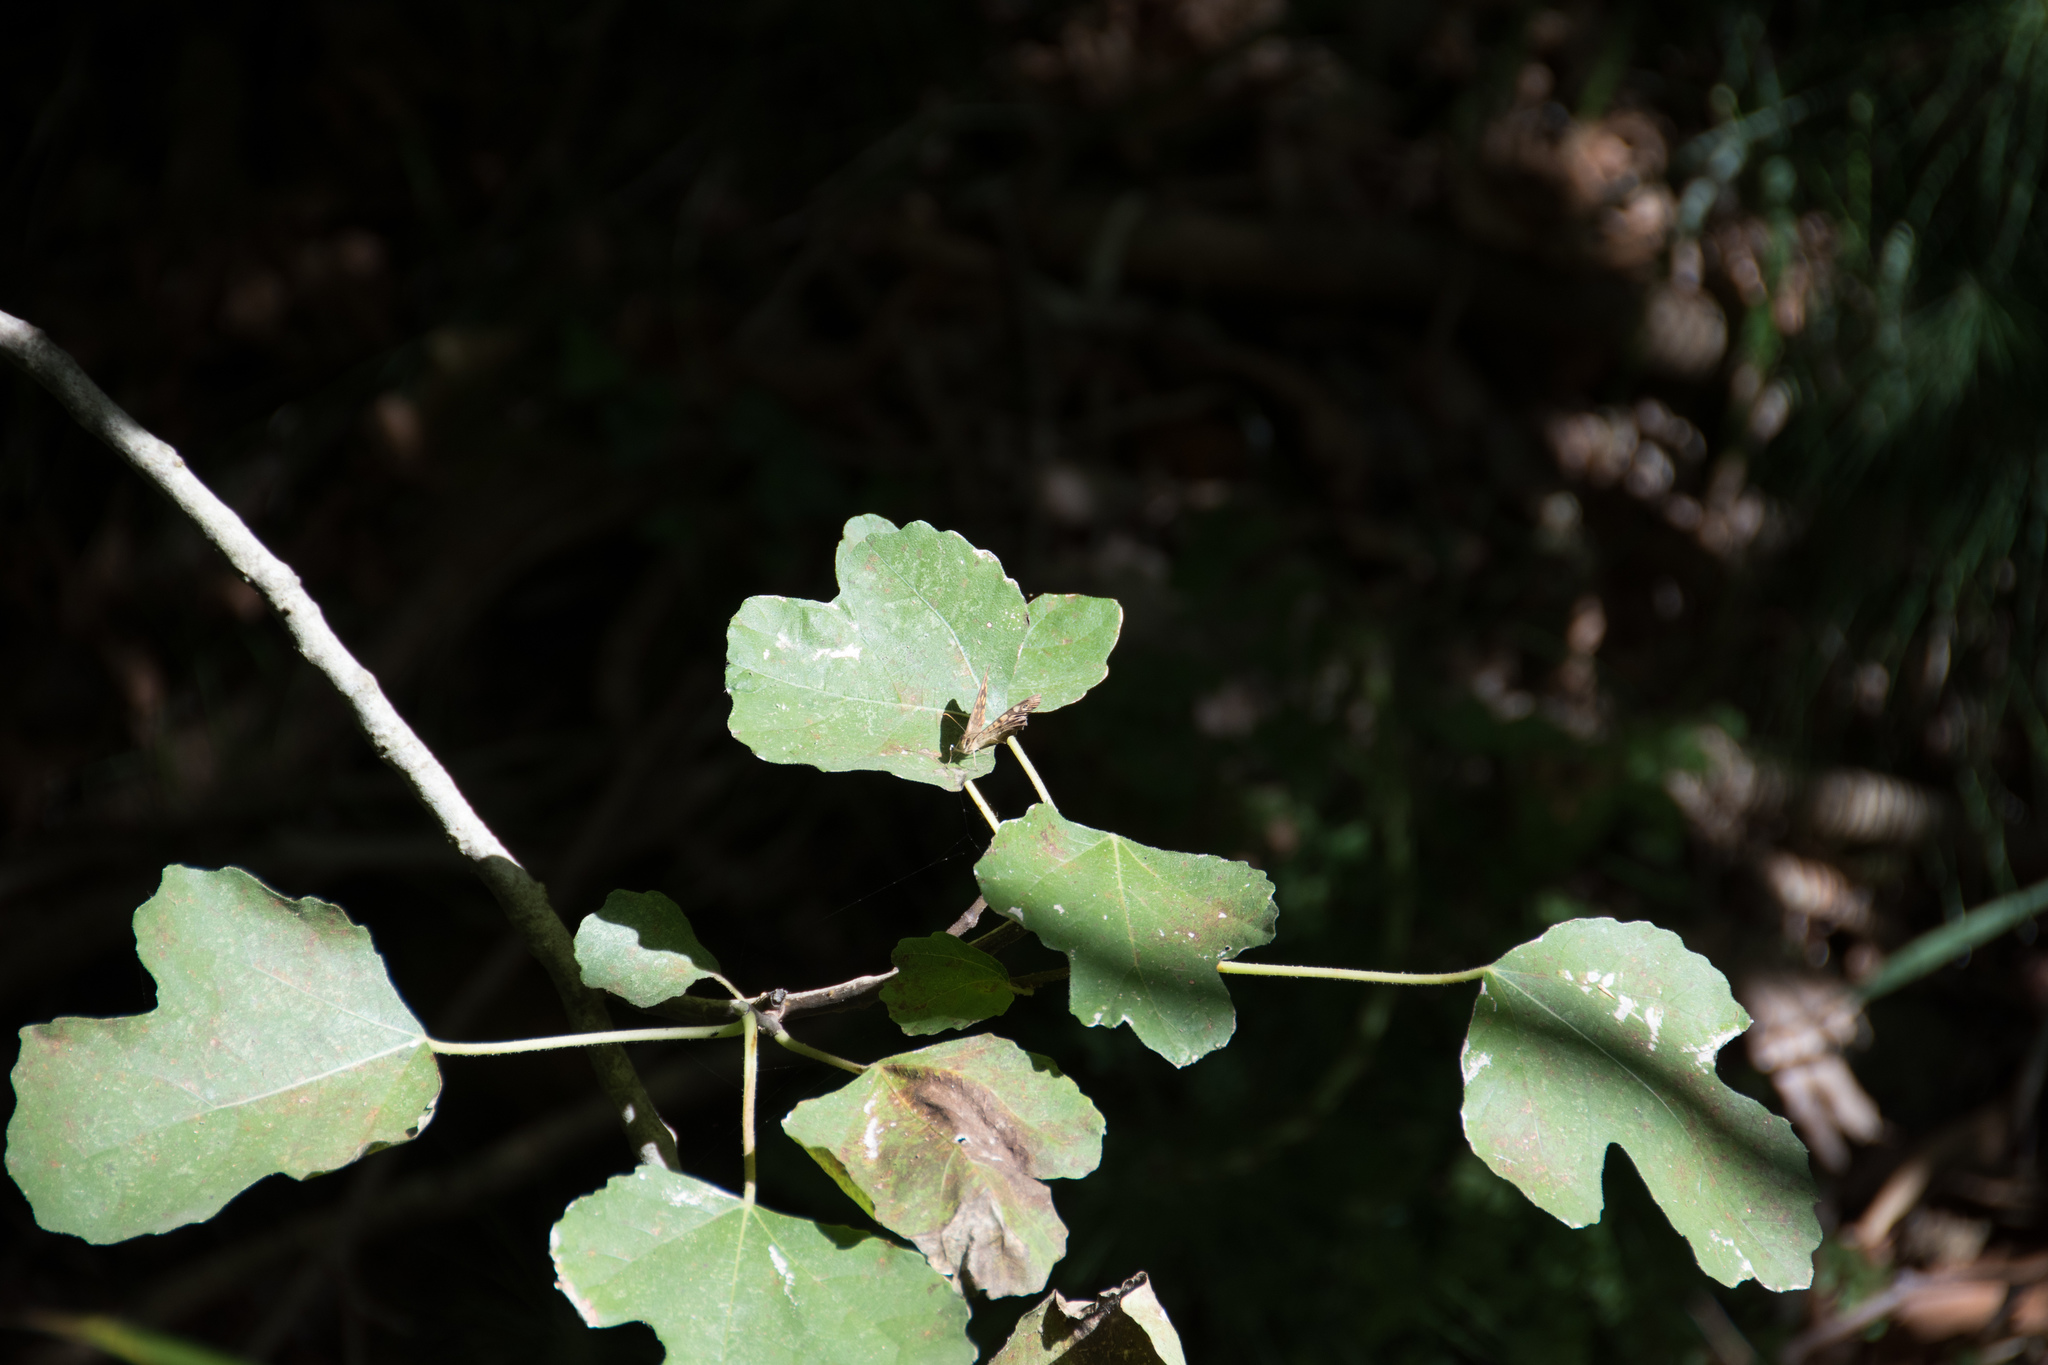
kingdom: Animalia
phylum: Arthropoda
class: Insecta
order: Lepidoptera
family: Nymphalidae
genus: Pararge
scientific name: Pararge aegeria
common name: Speckled wood
